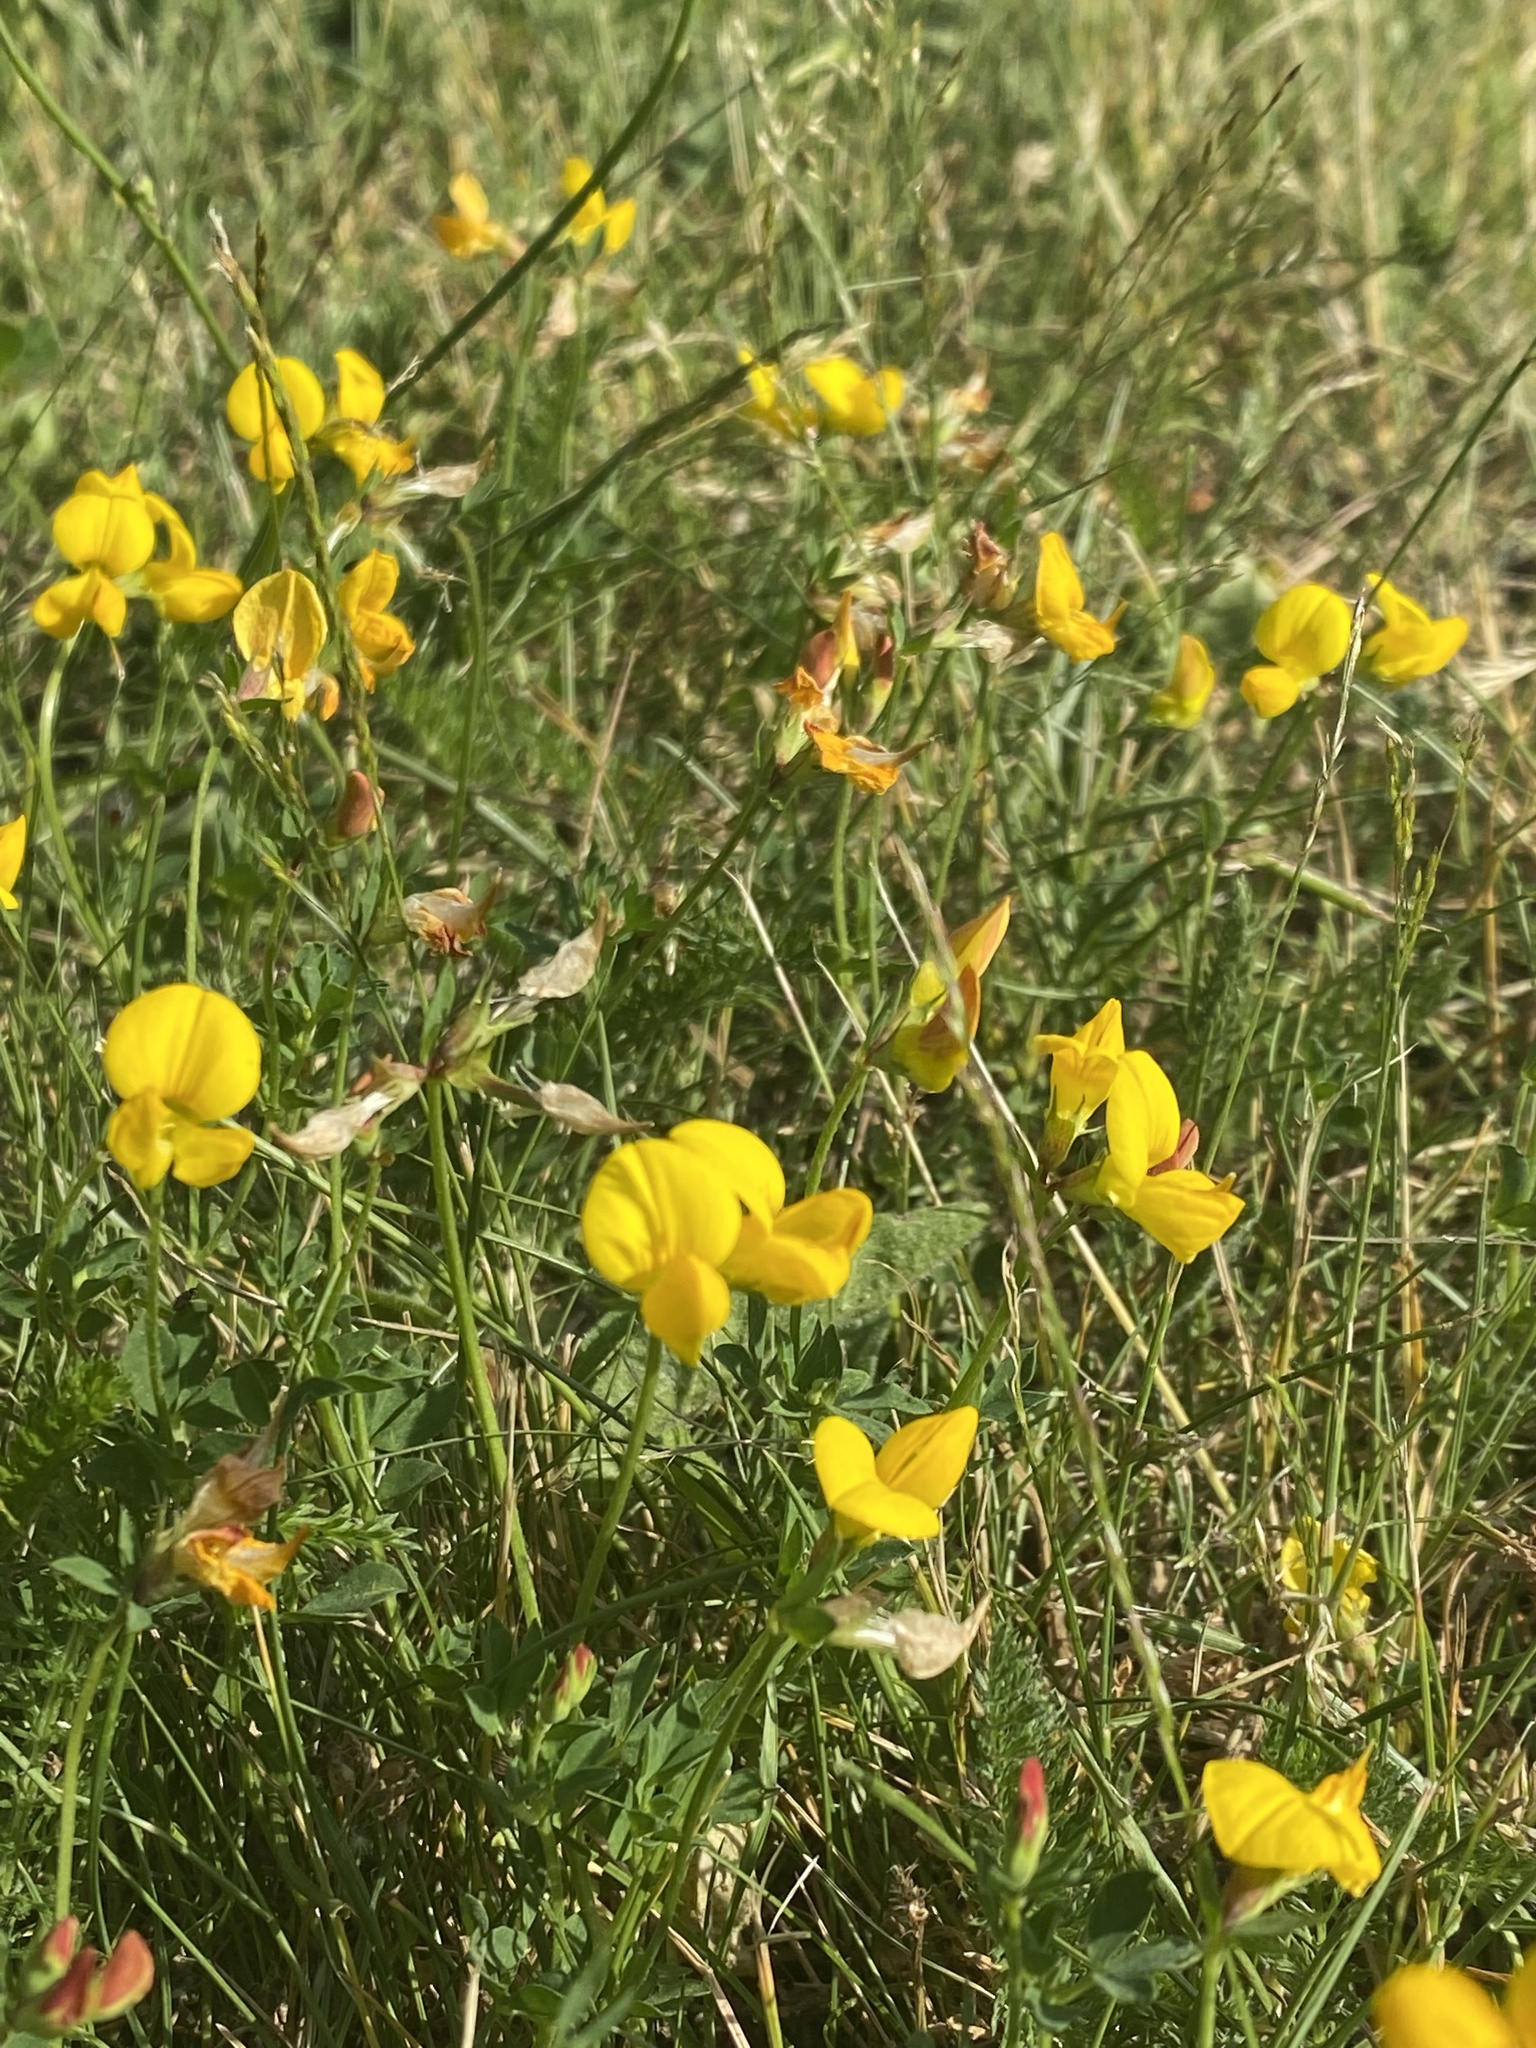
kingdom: Plantae
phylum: Tracheophyta
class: Magnoliopsida
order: Fabales
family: Fabaceae
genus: Lotus
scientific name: Lotus corniculatus
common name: Common bird's-foot-trefoil
